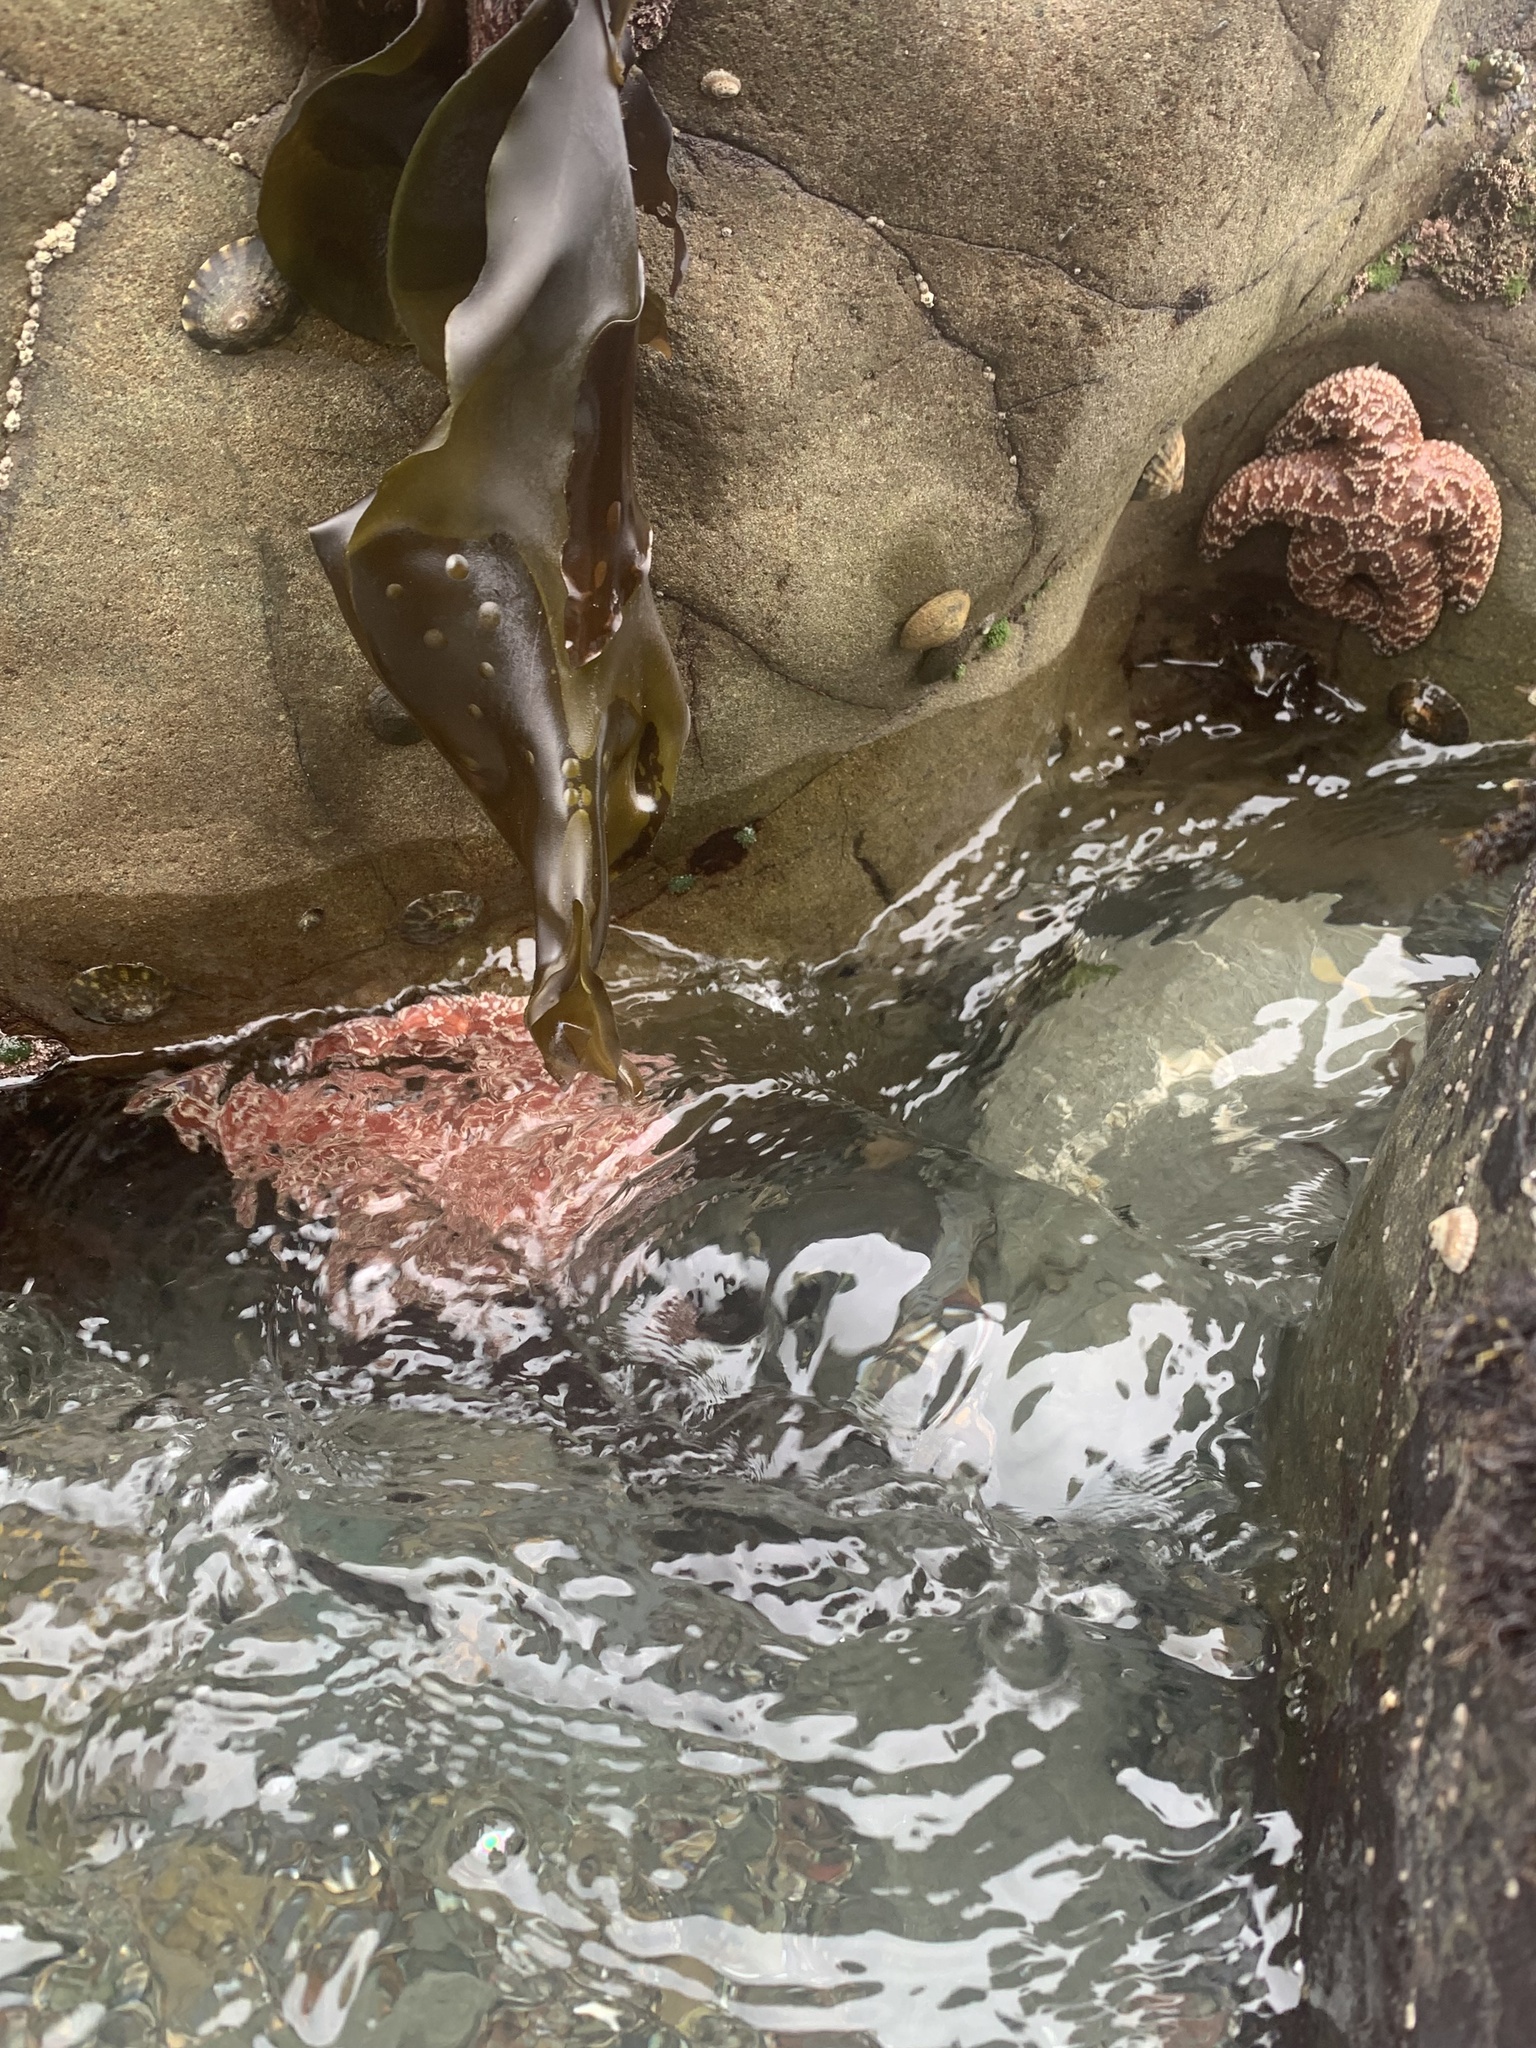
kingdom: Animalia
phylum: Echinodermata
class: Asteroidea
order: Forcipulatida
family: Asteriidae
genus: Pisaster
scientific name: Pisaster ochraceus
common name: Ochre stars
